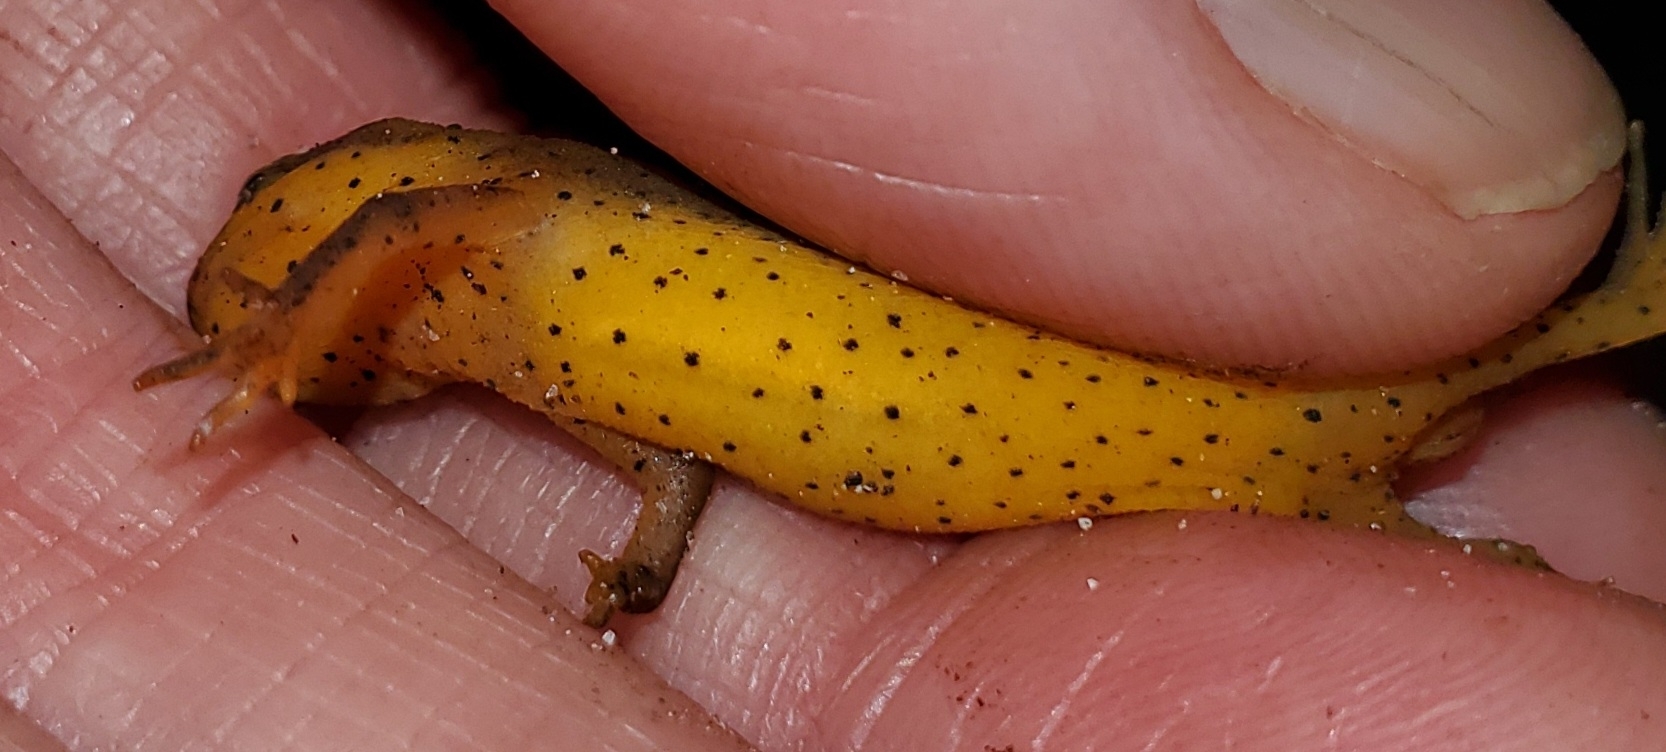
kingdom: Animalia
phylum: Chordata
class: Amphibia
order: Caudata
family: Salamandridae
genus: Notophthalmus
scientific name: Notophthalmus viridescens
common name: Eastern newt
